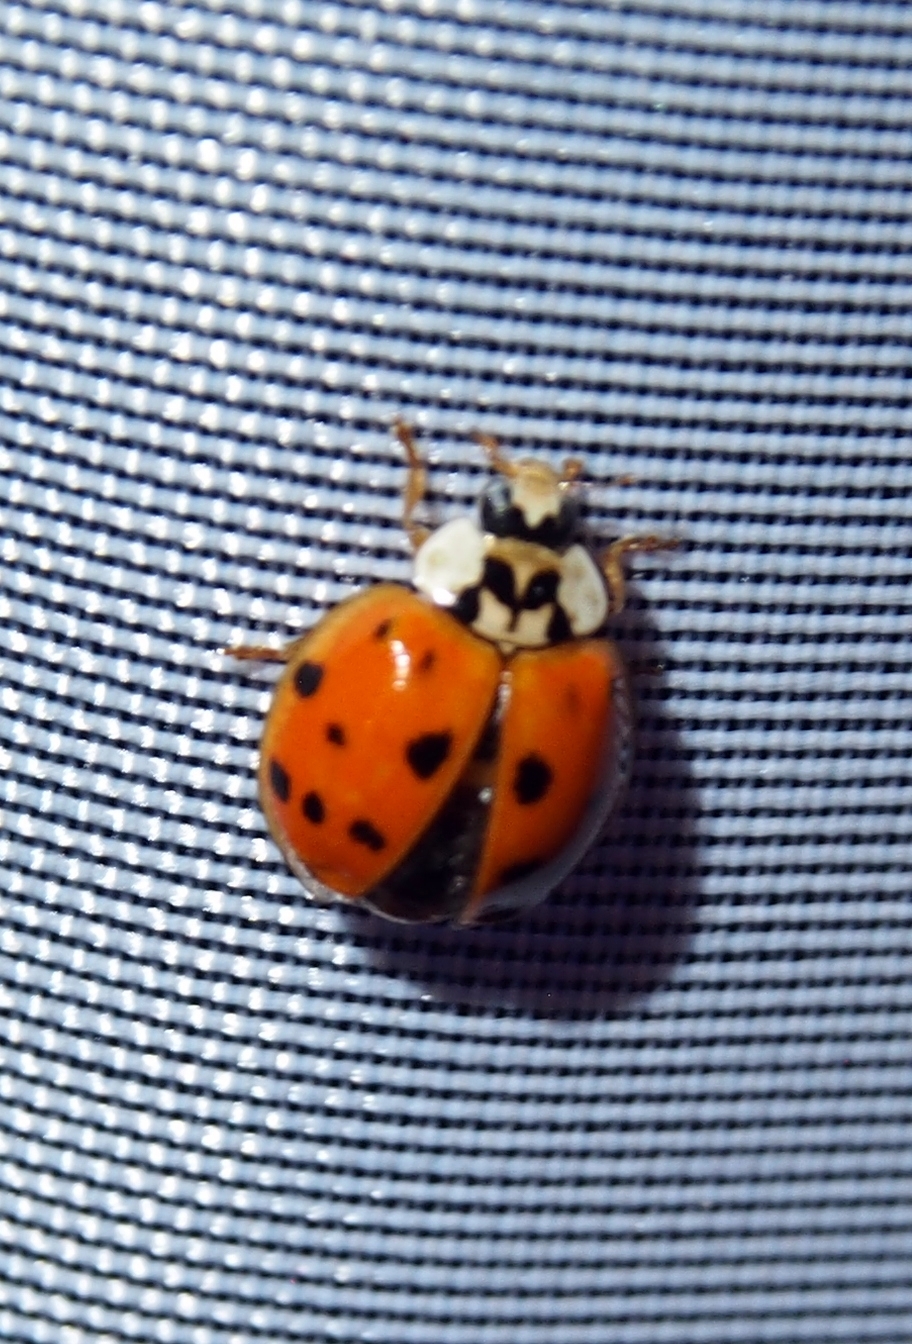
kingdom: Animalia
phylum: Arthropoda
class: Insecta
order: Coleoptera
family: Coccinellidae
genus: Harmonia
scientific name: Harmonia axyridis
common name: Harlequin ladybird
